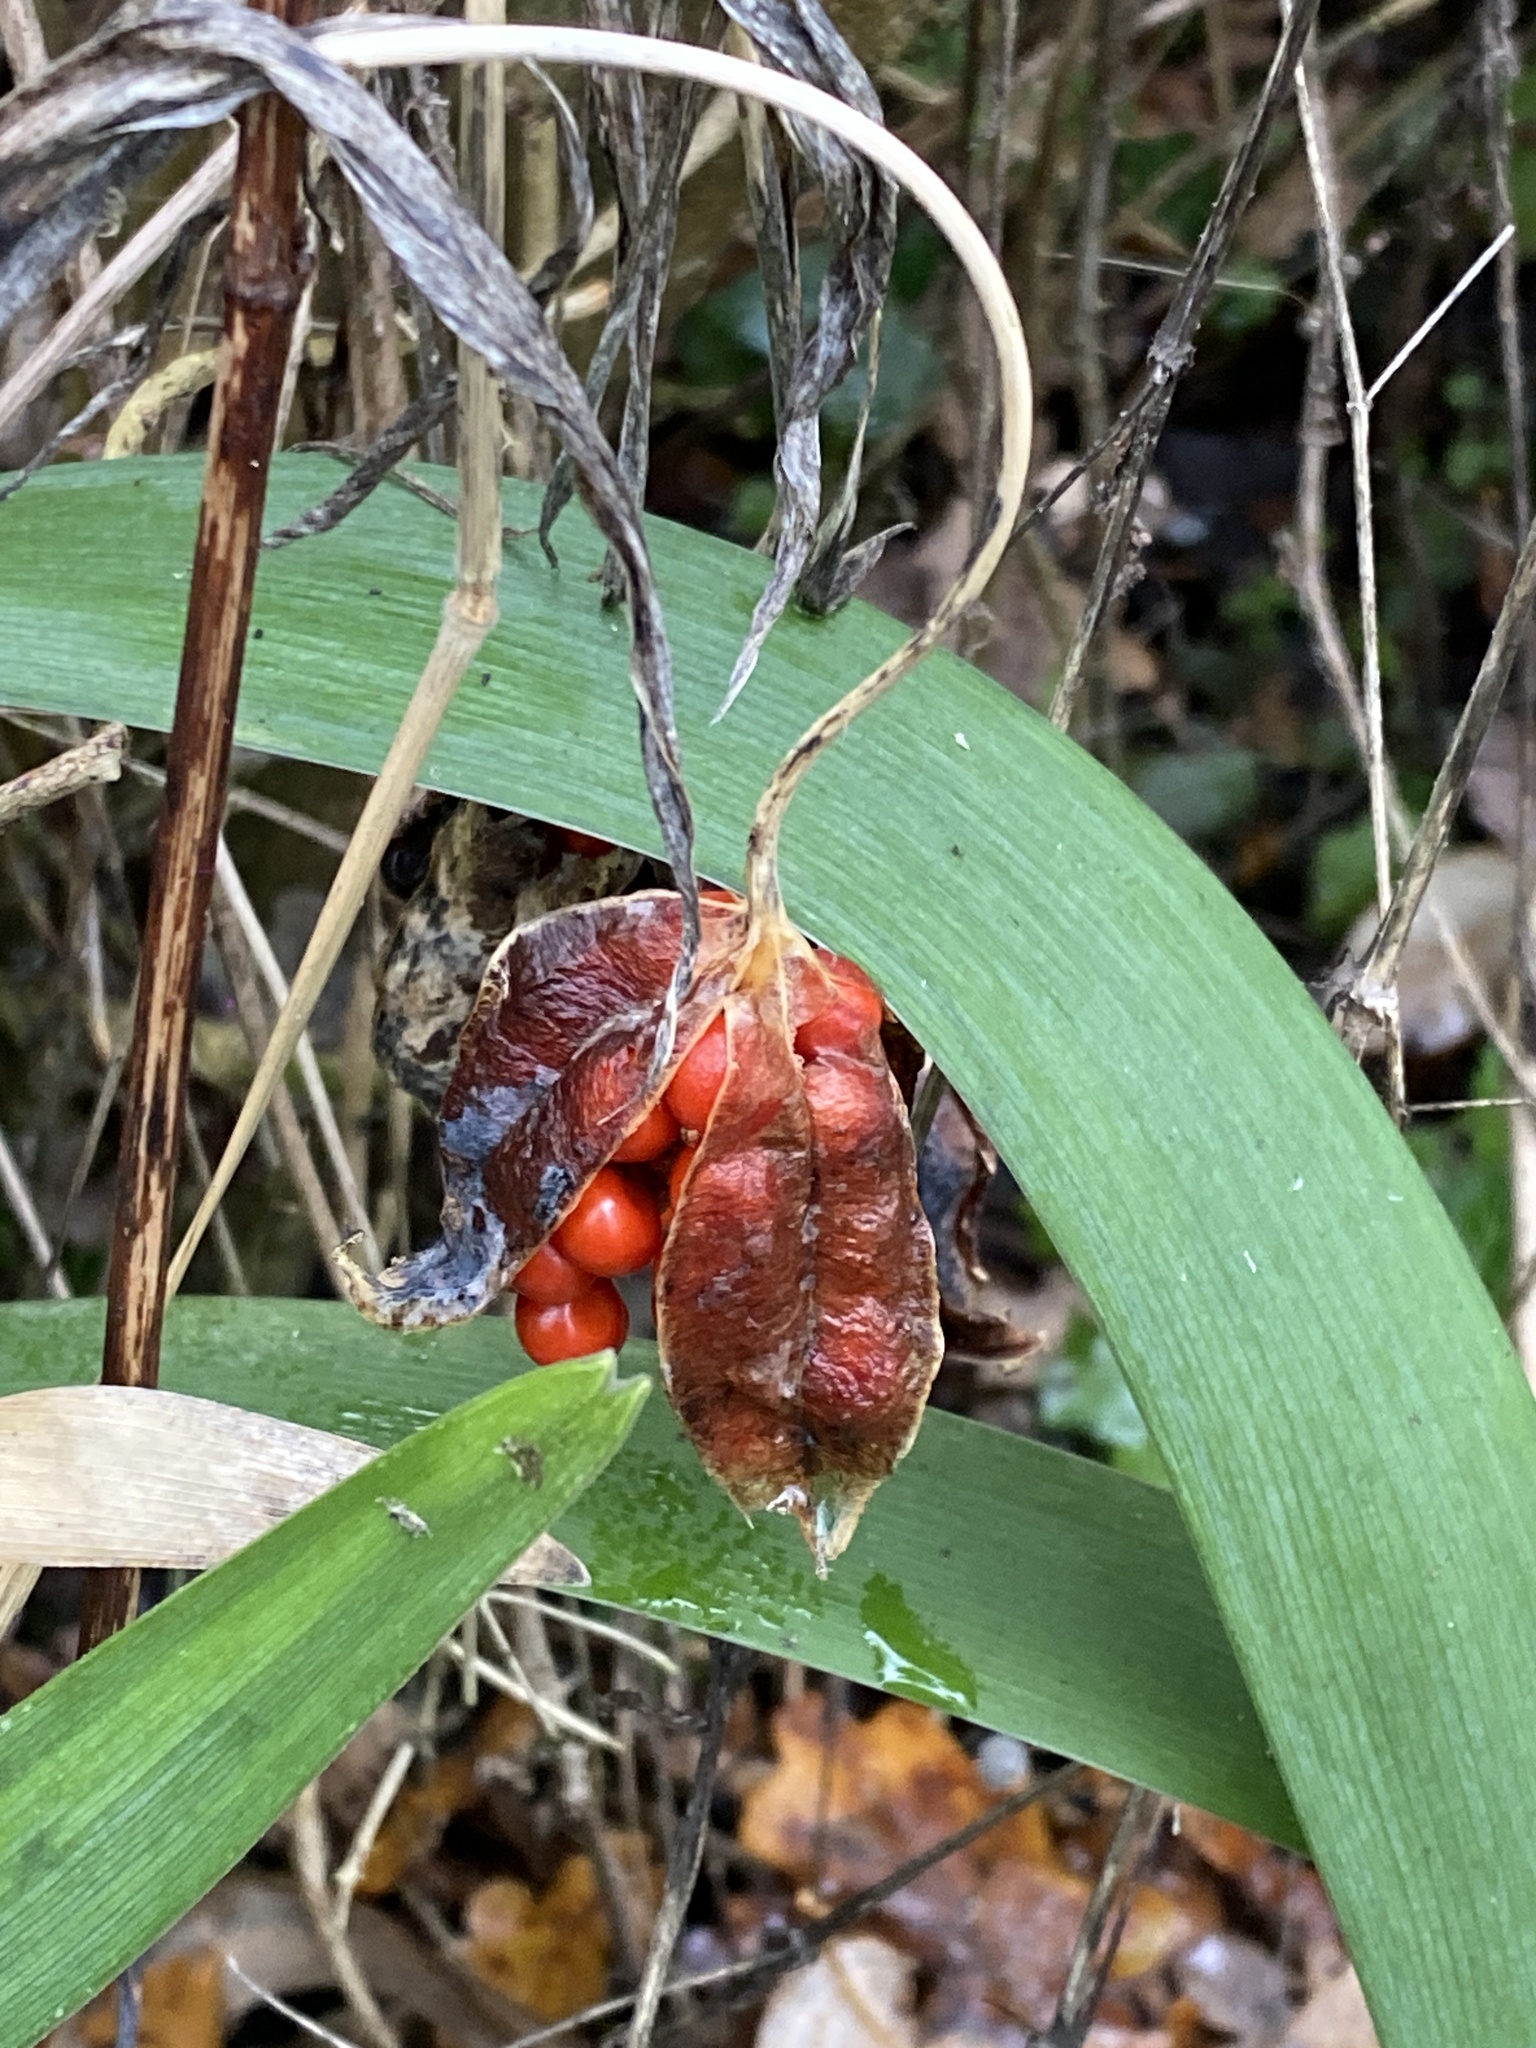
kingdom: Plantae
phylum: Tracheophyta
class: Liliopsida
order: Asparagales
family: Iridaceae
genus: Iris
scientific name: Iris foetidissima
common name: Stinking iris
